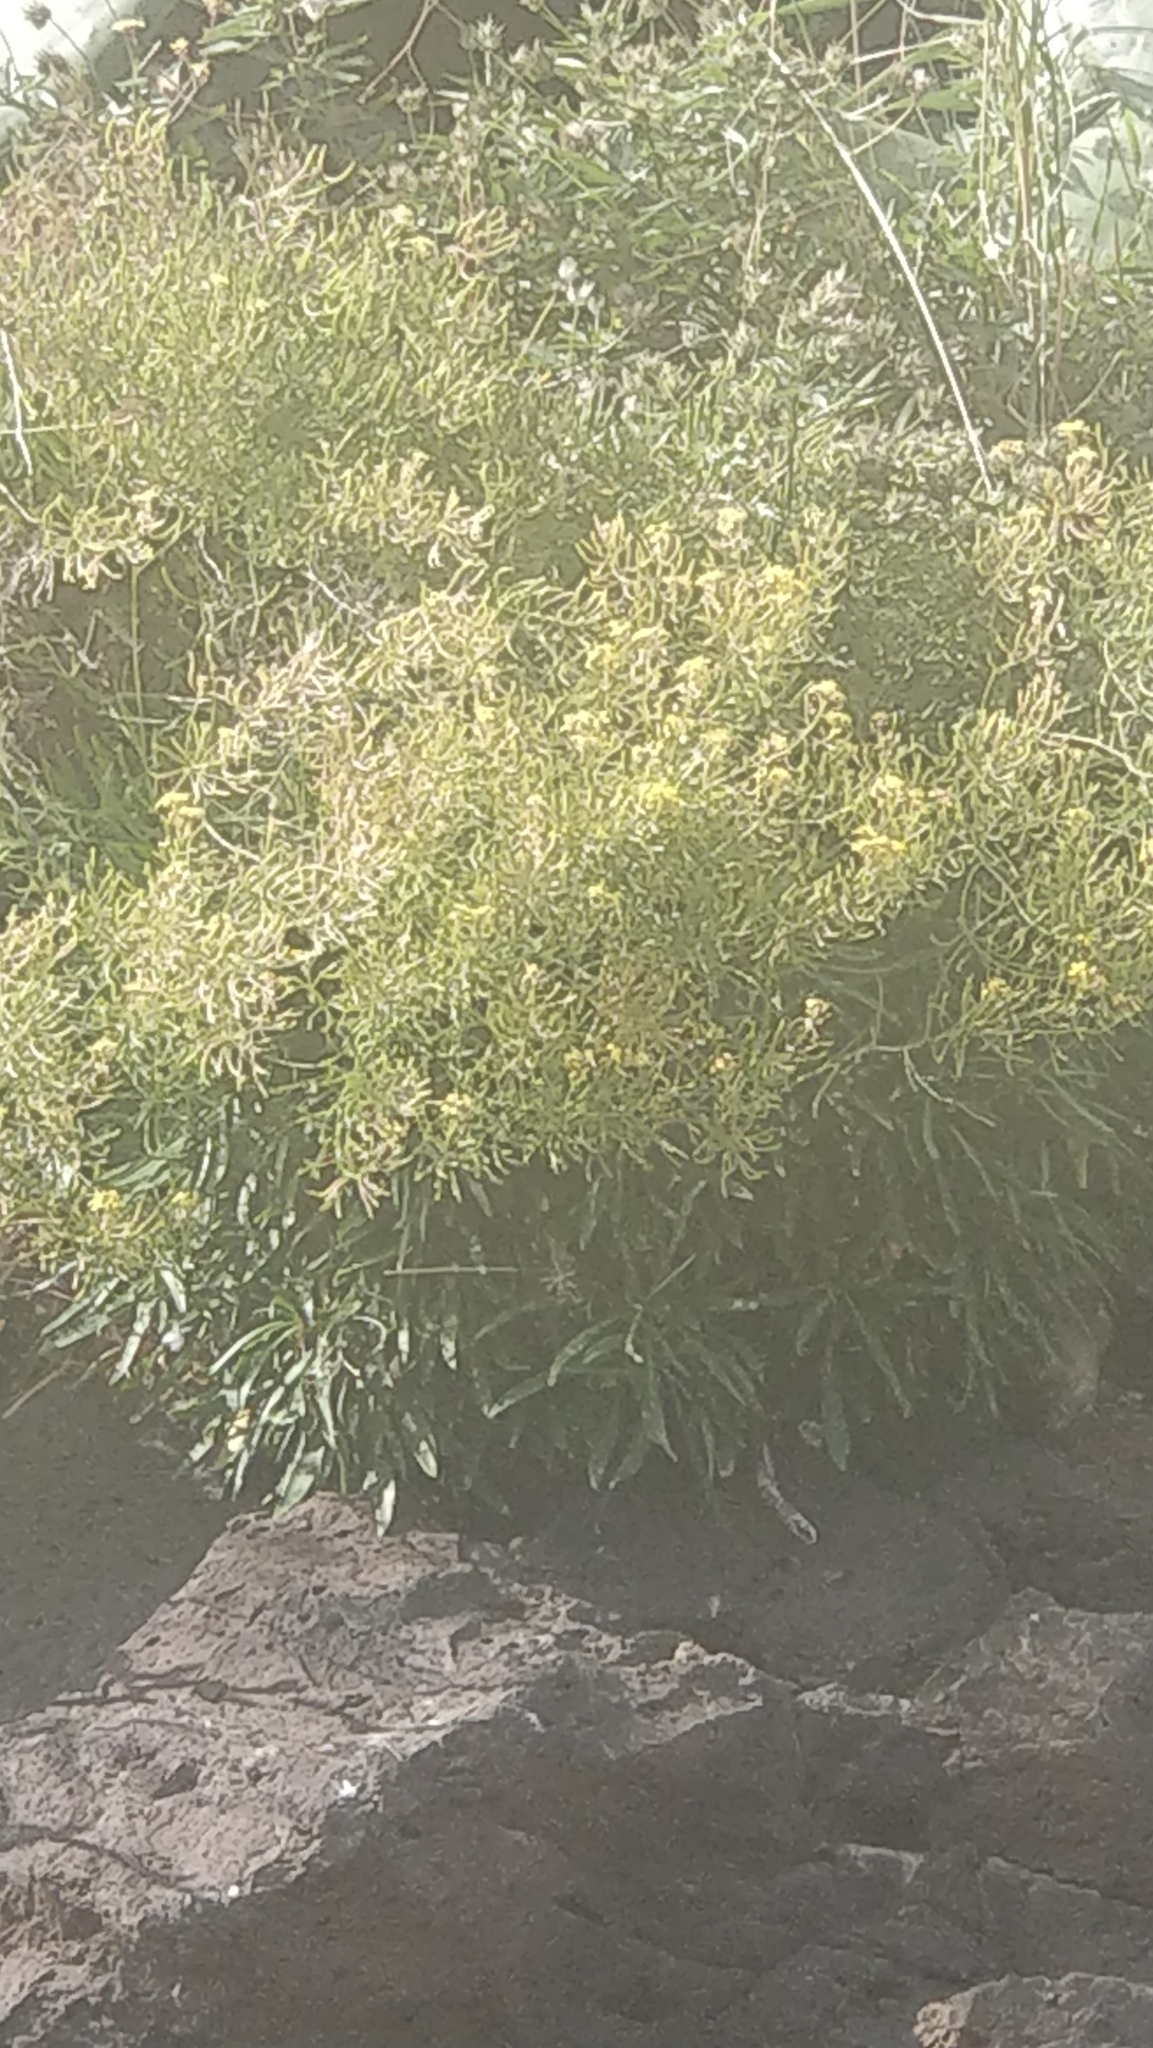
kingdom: Plantae
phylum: Tracheophyta
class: Magnoliopsida
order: Brassicales
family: Brassicaceae
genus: Sinapidendron
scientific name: Sinapidendron angustifolium
